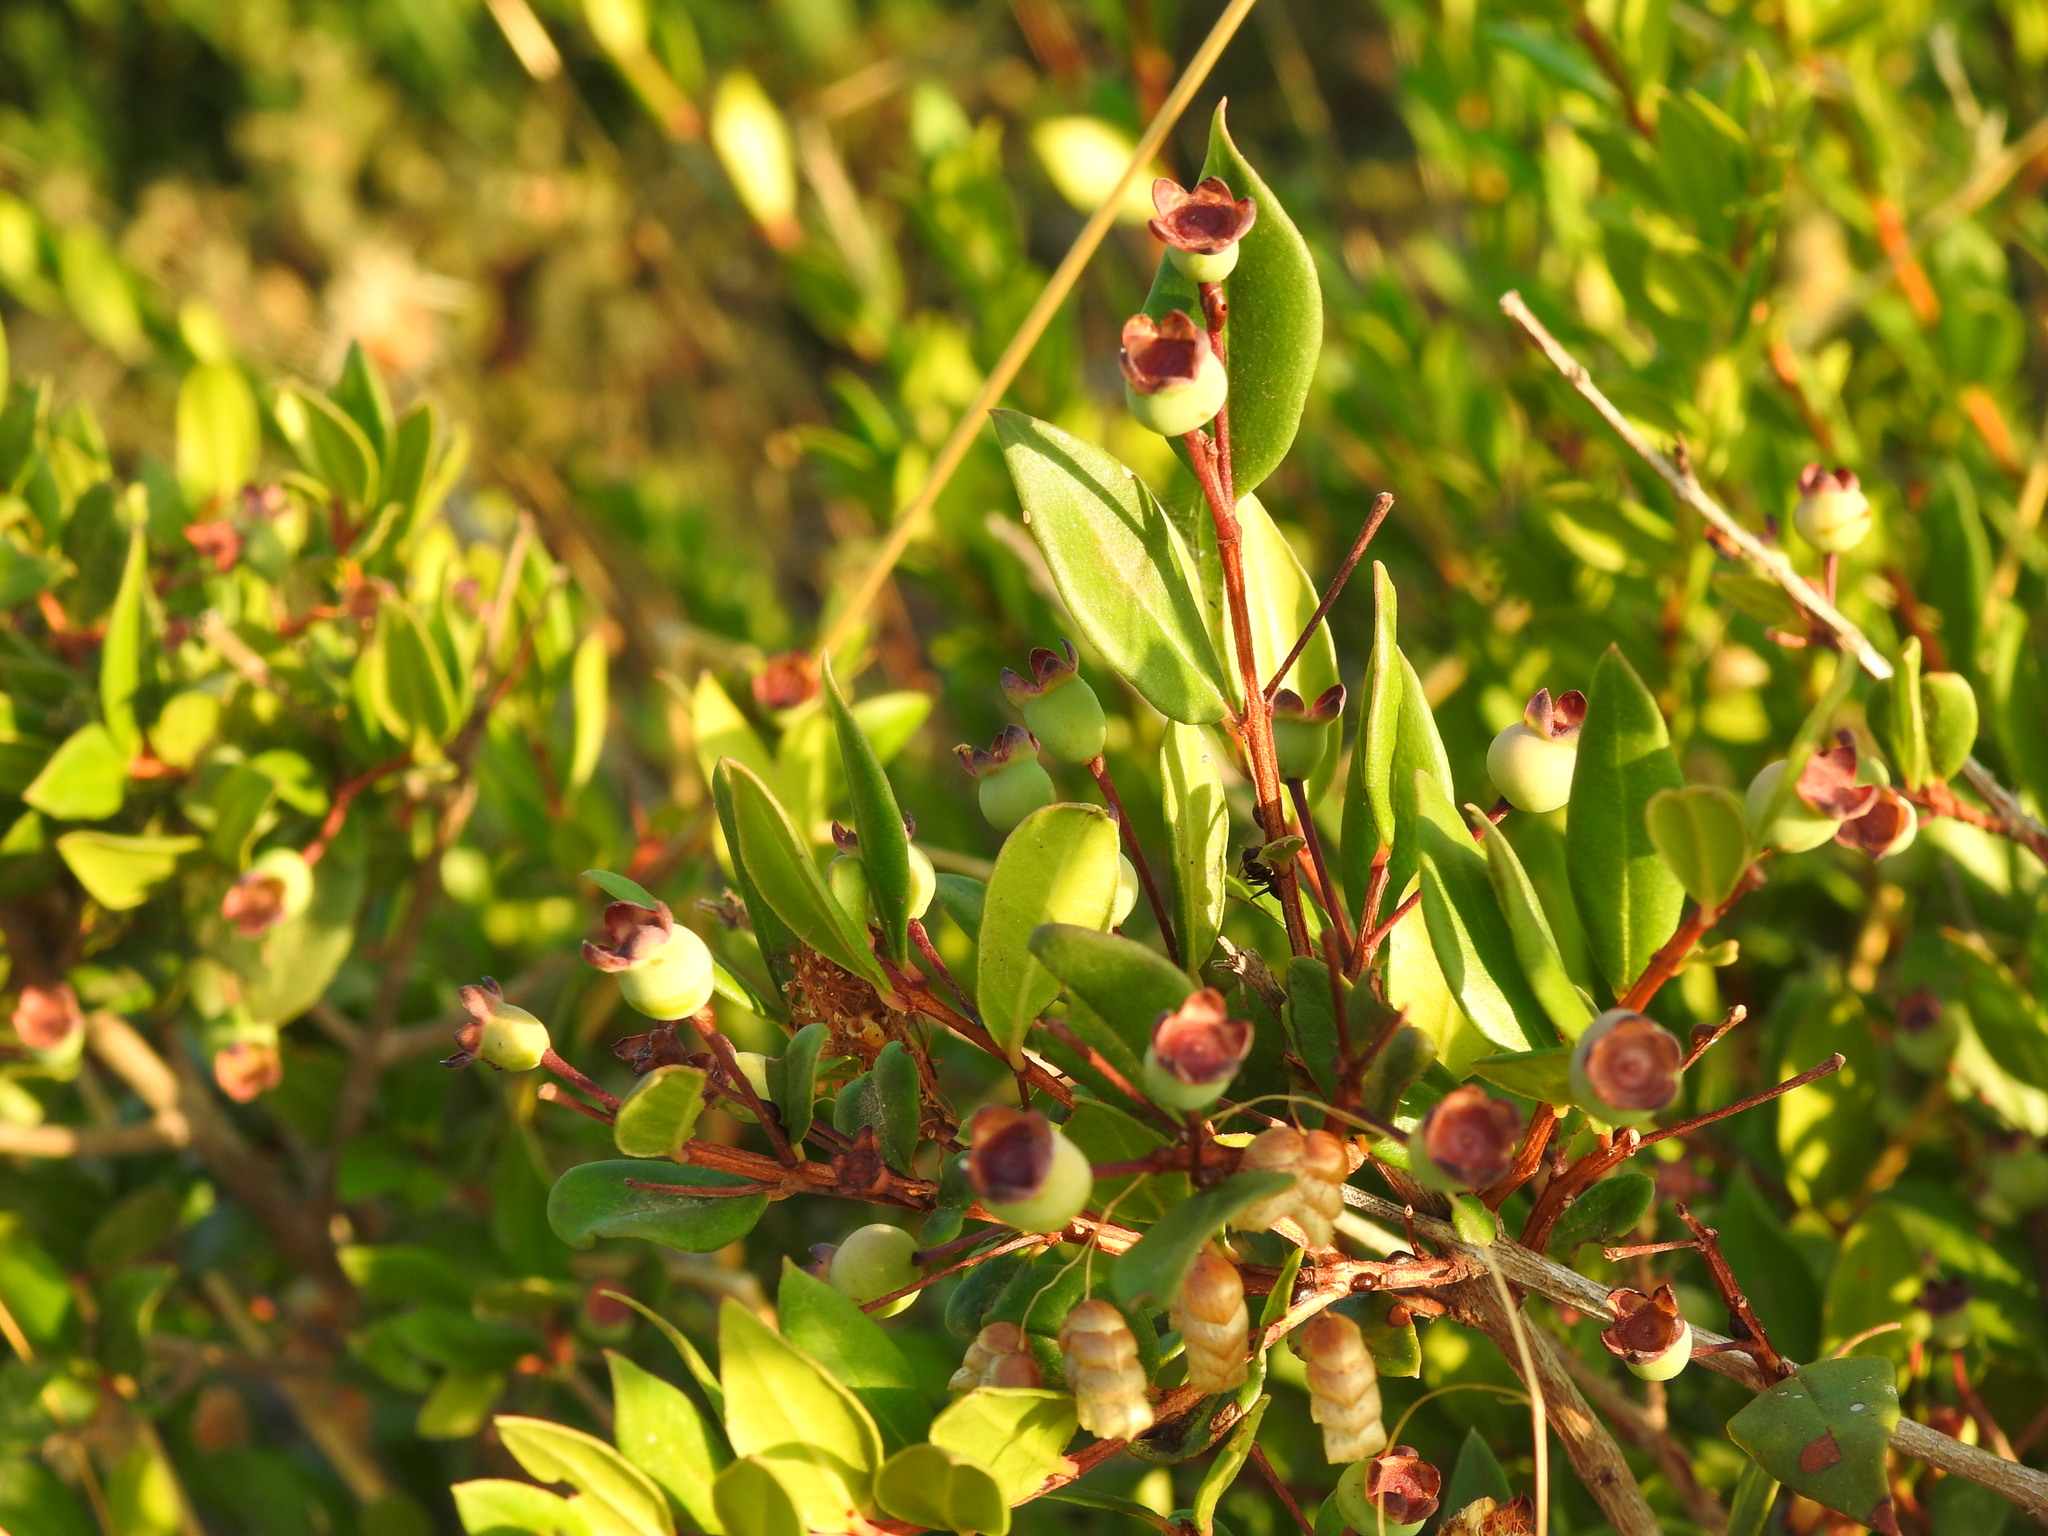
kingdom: Plantae
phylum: Tracheophyta
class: Magnoliopsida
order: Myrtales
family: Myrtaceae
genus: Myrtus
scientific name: Myrtus communis
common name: Myrtle
